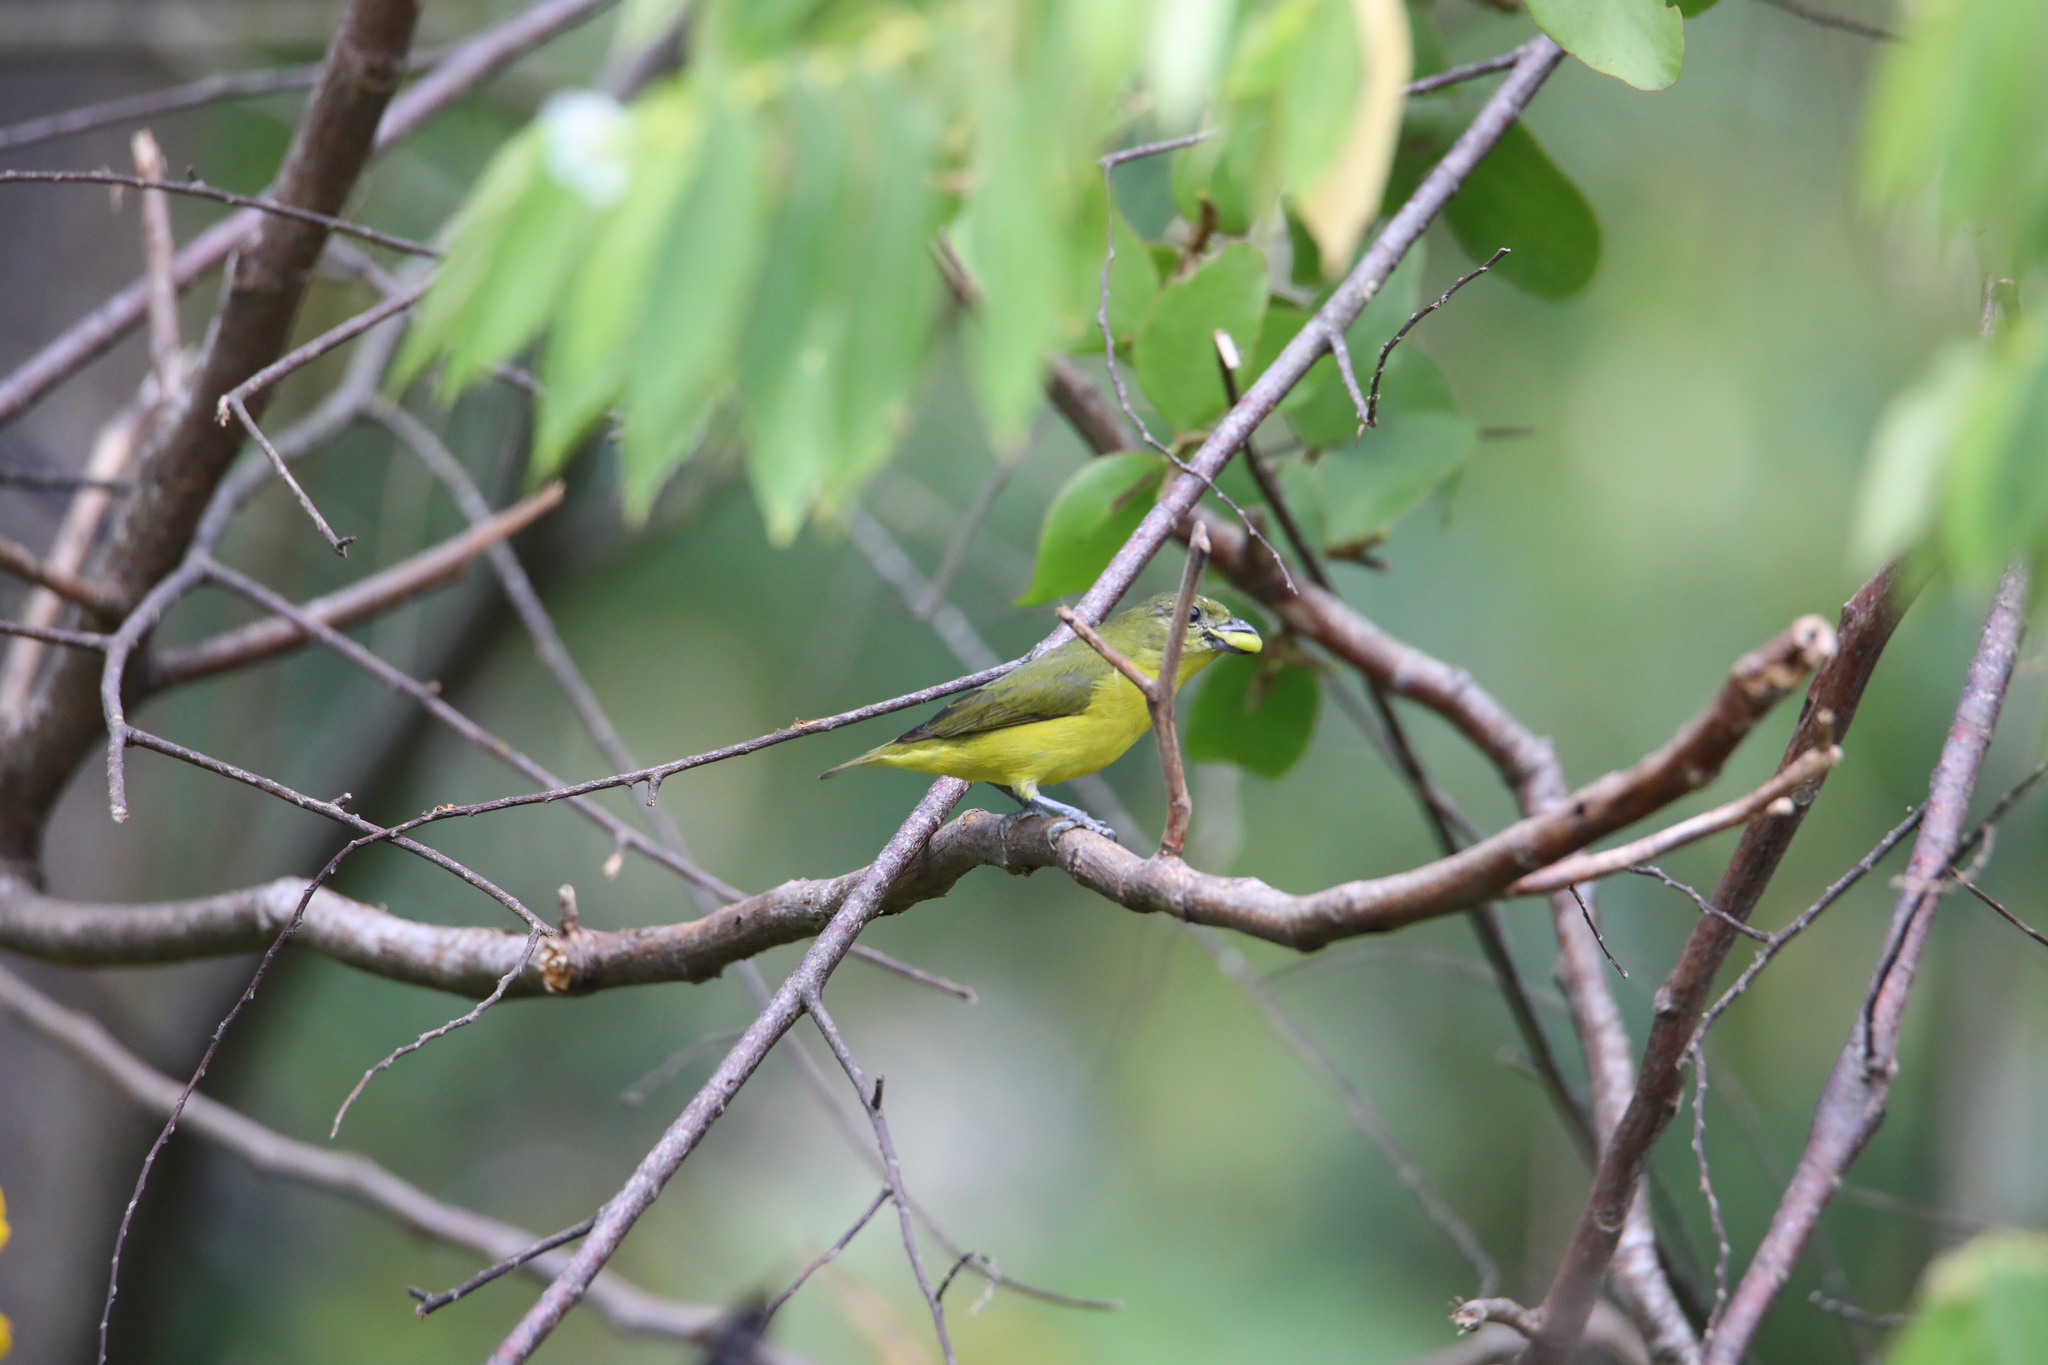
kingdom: Animalia
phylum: Chordata
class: Aves
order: Passeriformes
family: Fringillidae
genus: Euphonia
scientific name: Euphonia laniirostris
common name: Thick-billed euphonia
